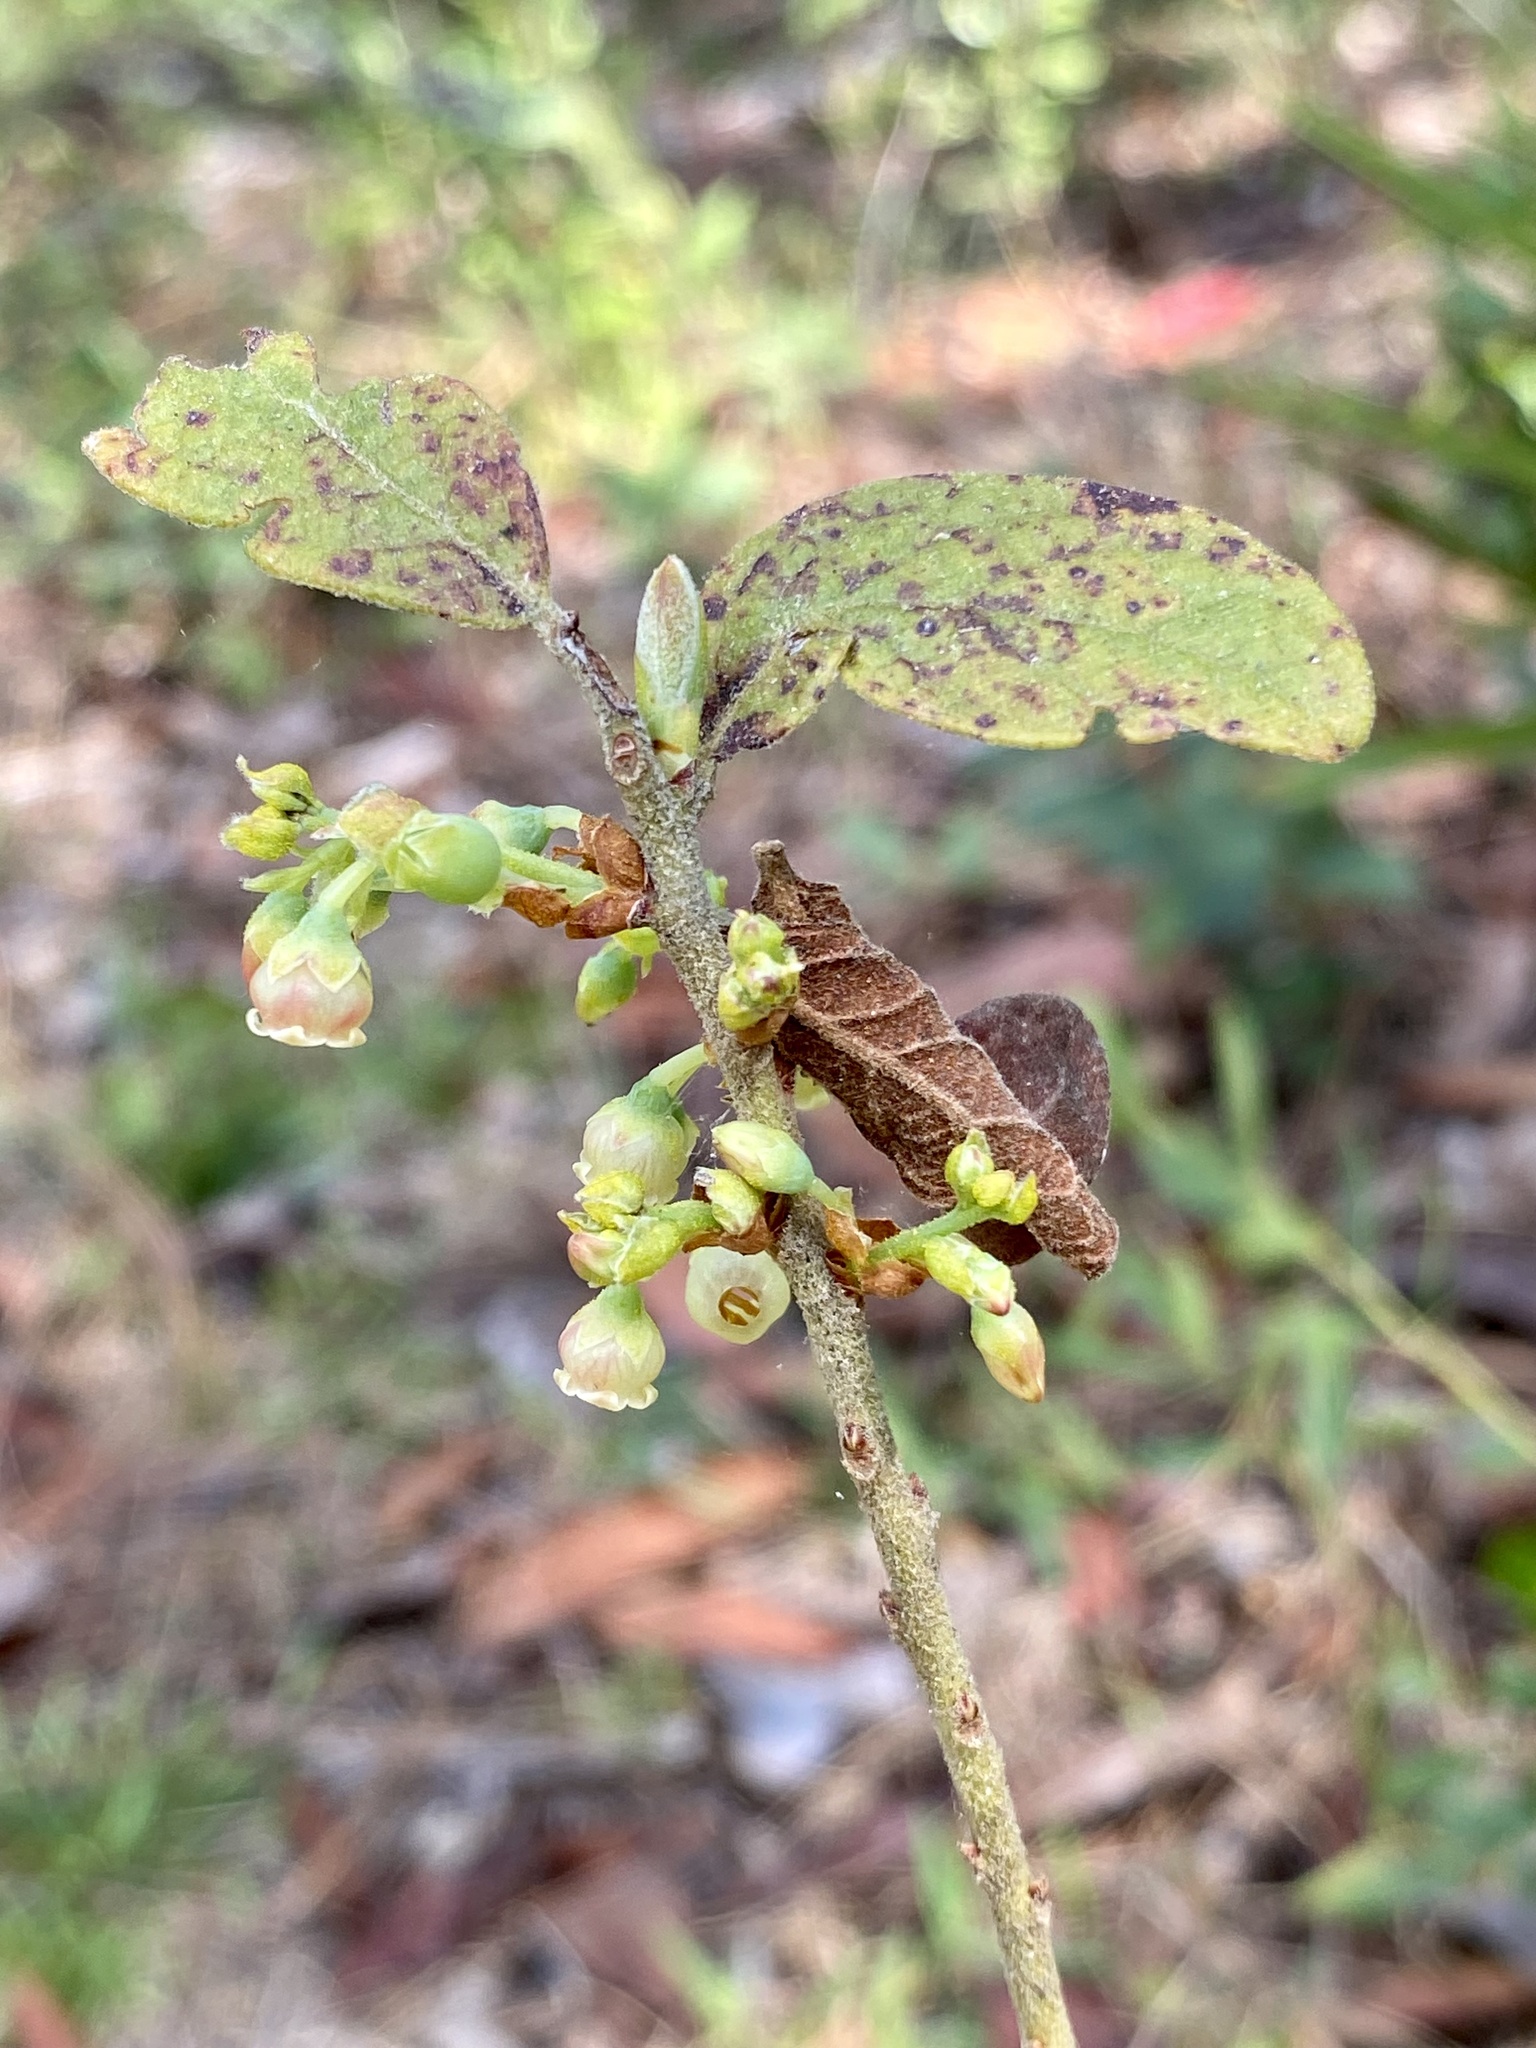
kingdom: Plantae
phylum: Tracheophyta
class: Magnoliopsida
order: Ericales
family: Ericaceae
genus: Gaylussacia
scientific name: Gaylussacia tomentosa
